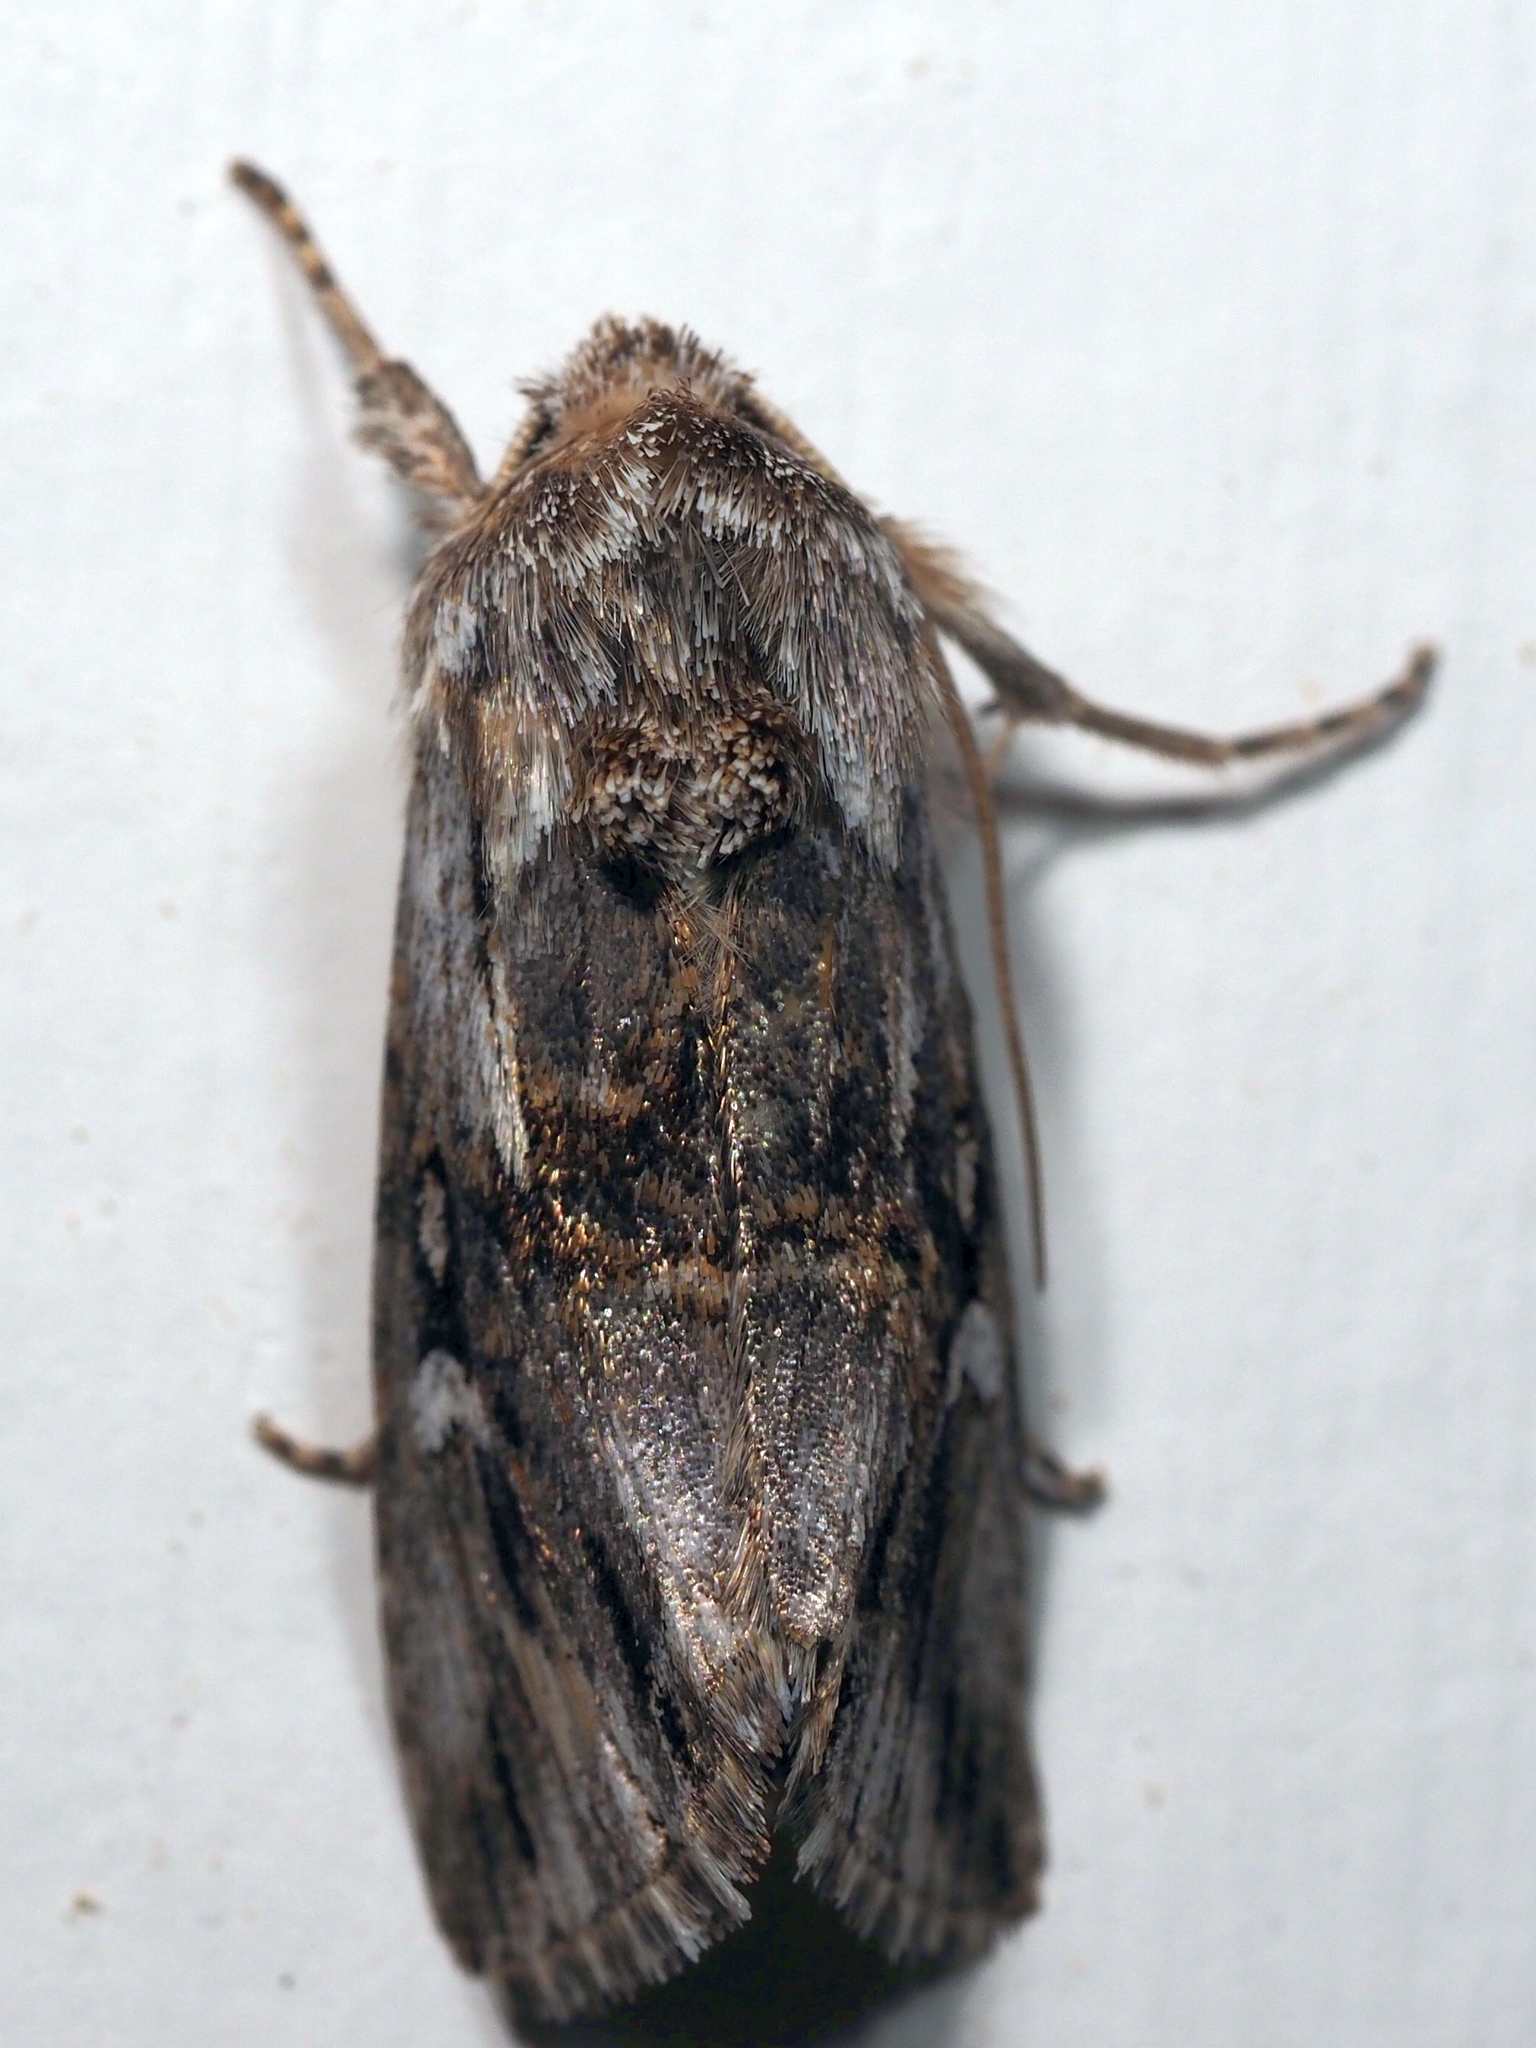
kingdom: Animalia
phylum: Arthropoda
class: Insecta
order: Lepidoptera
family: Noctuidae
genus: Calophasia
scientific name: Calophasia lunula
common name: Toadflax brocade
